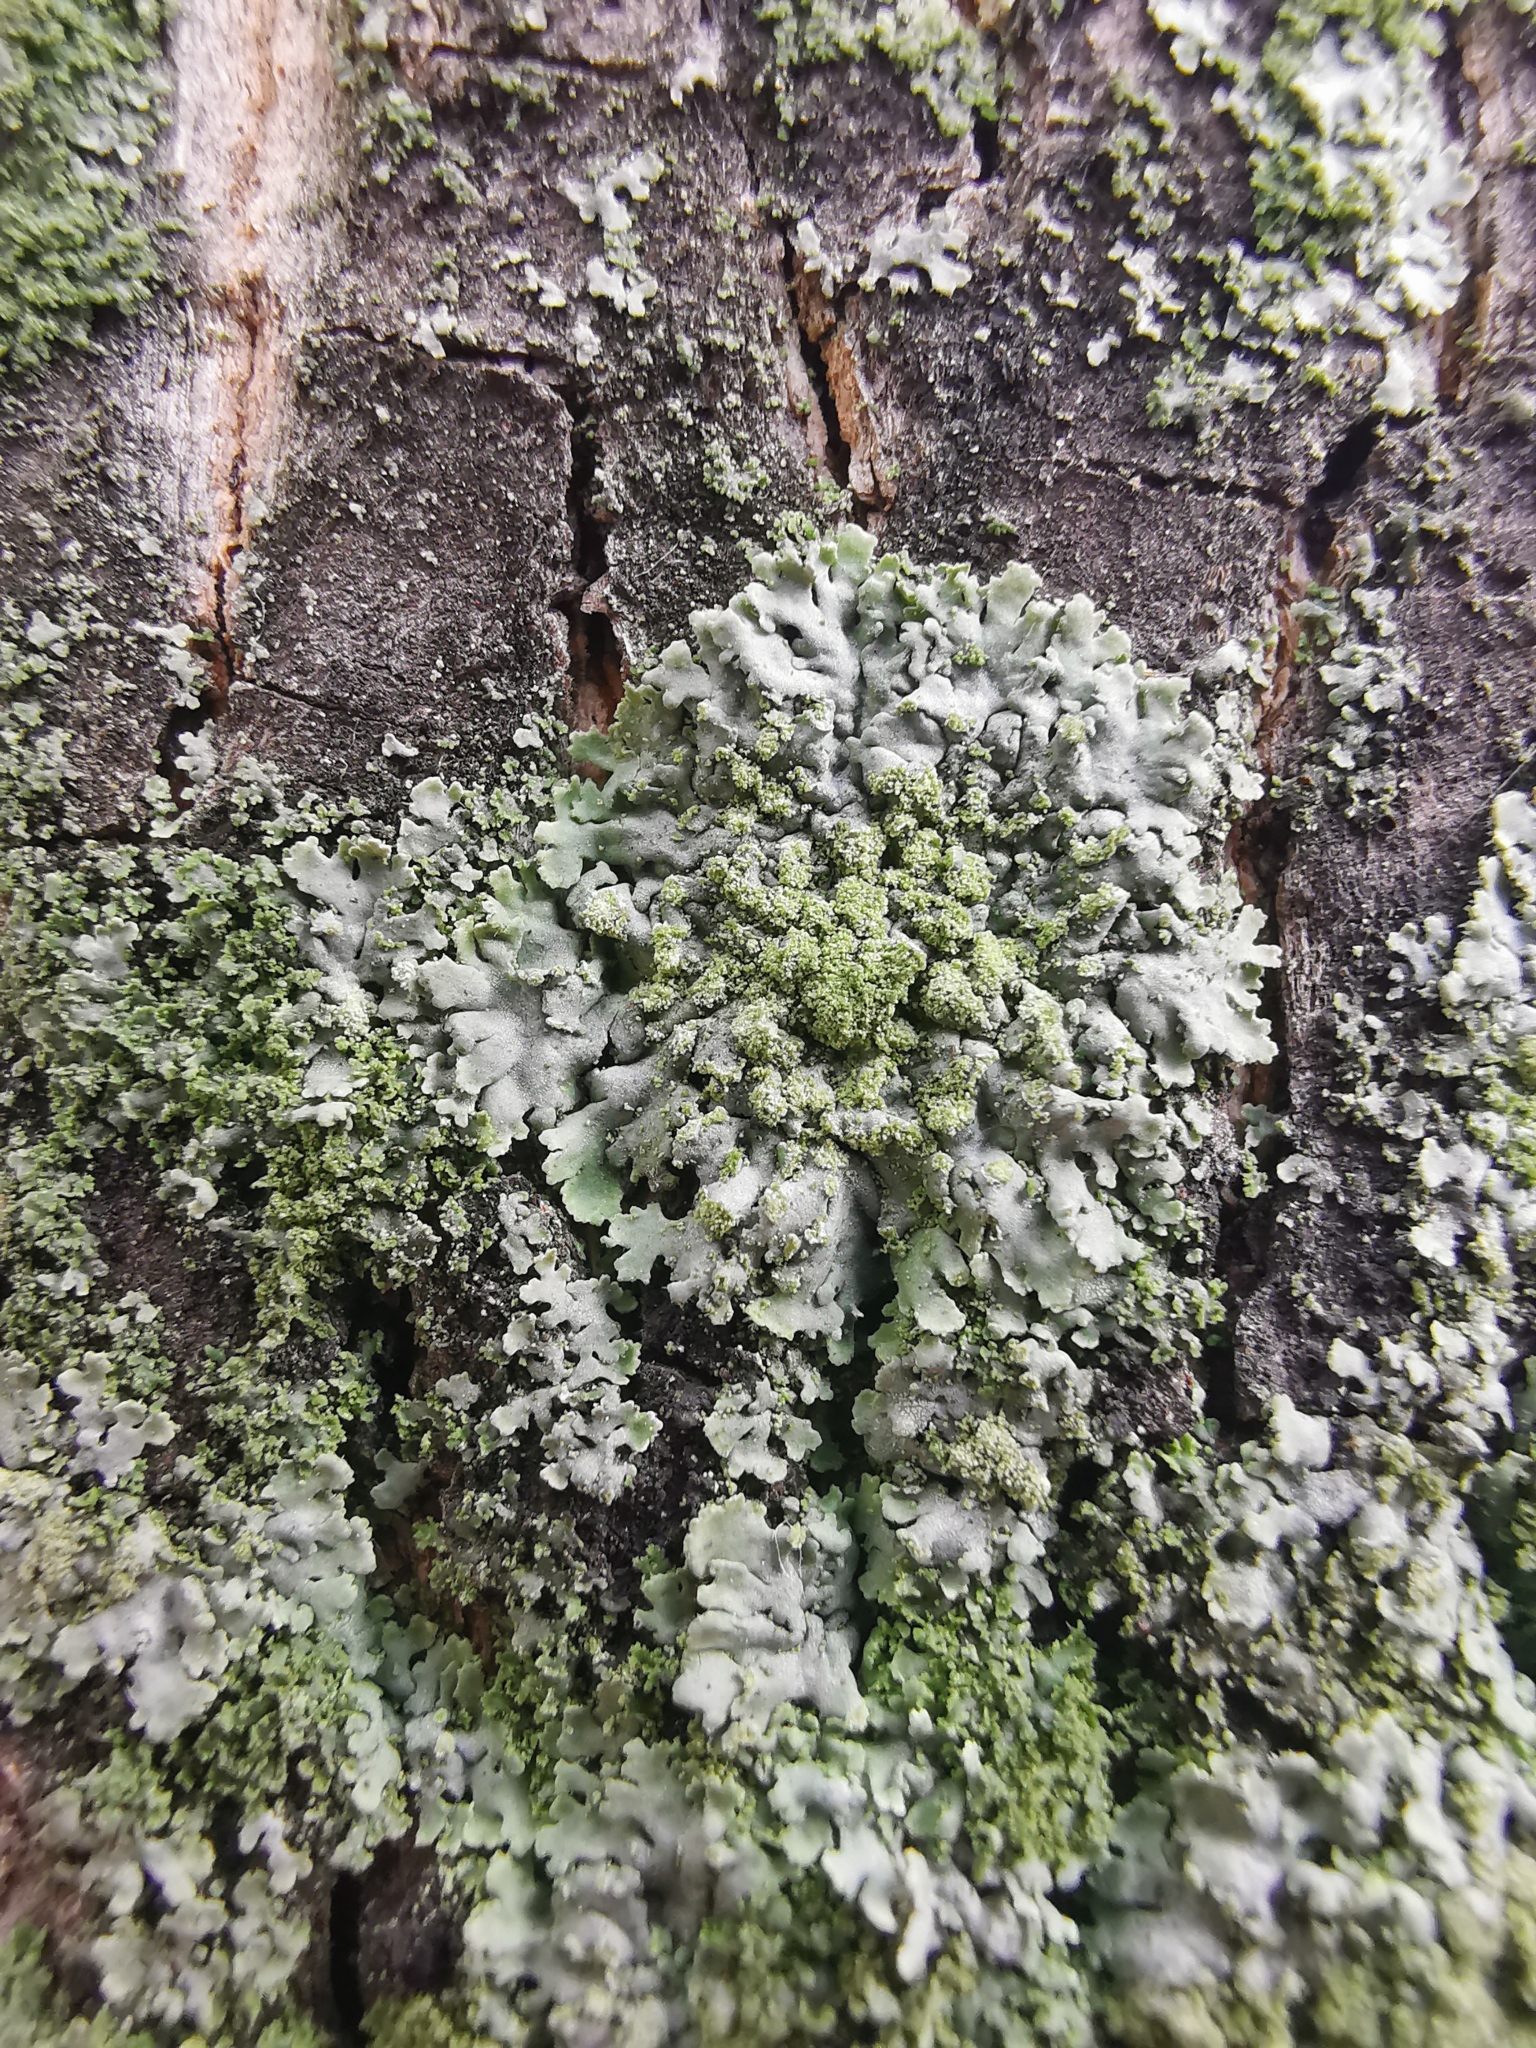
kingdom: Fungi
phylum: Ascomycota
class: Lecanoromycetes
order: Caliciales
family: Physciaceae
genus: Phaeophyscia
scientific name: Phaeophyscia orbicularis
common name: Mealy shadow lichen
